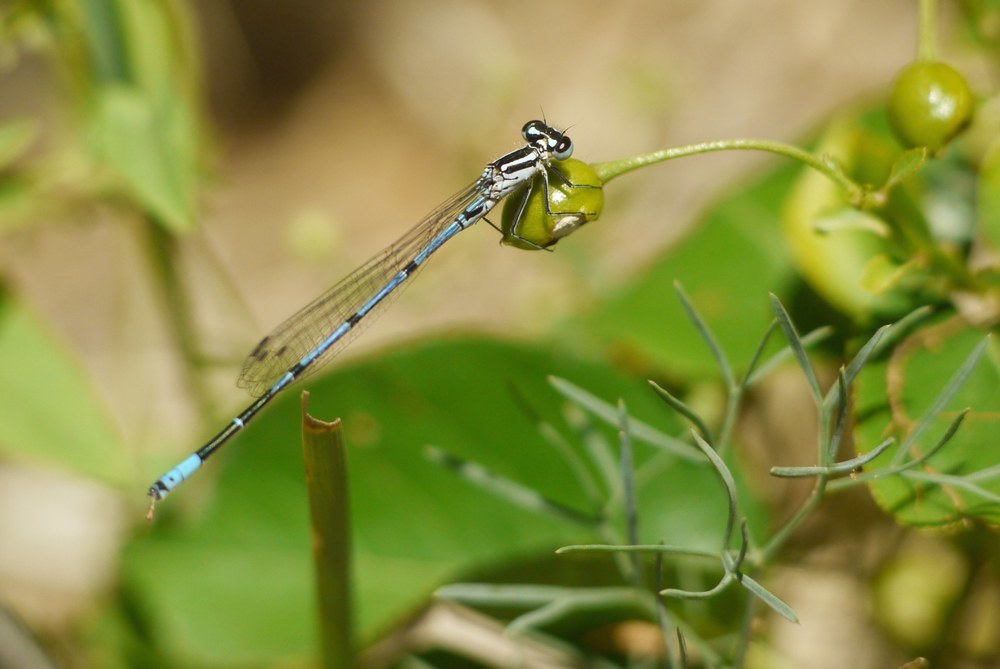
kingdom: Animalia
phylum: Arthropoda
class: Insecta
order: Odonata
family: Coenagrionidae
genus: Coenagrion
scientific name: Coenagrion puella
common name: Azure damselfly
